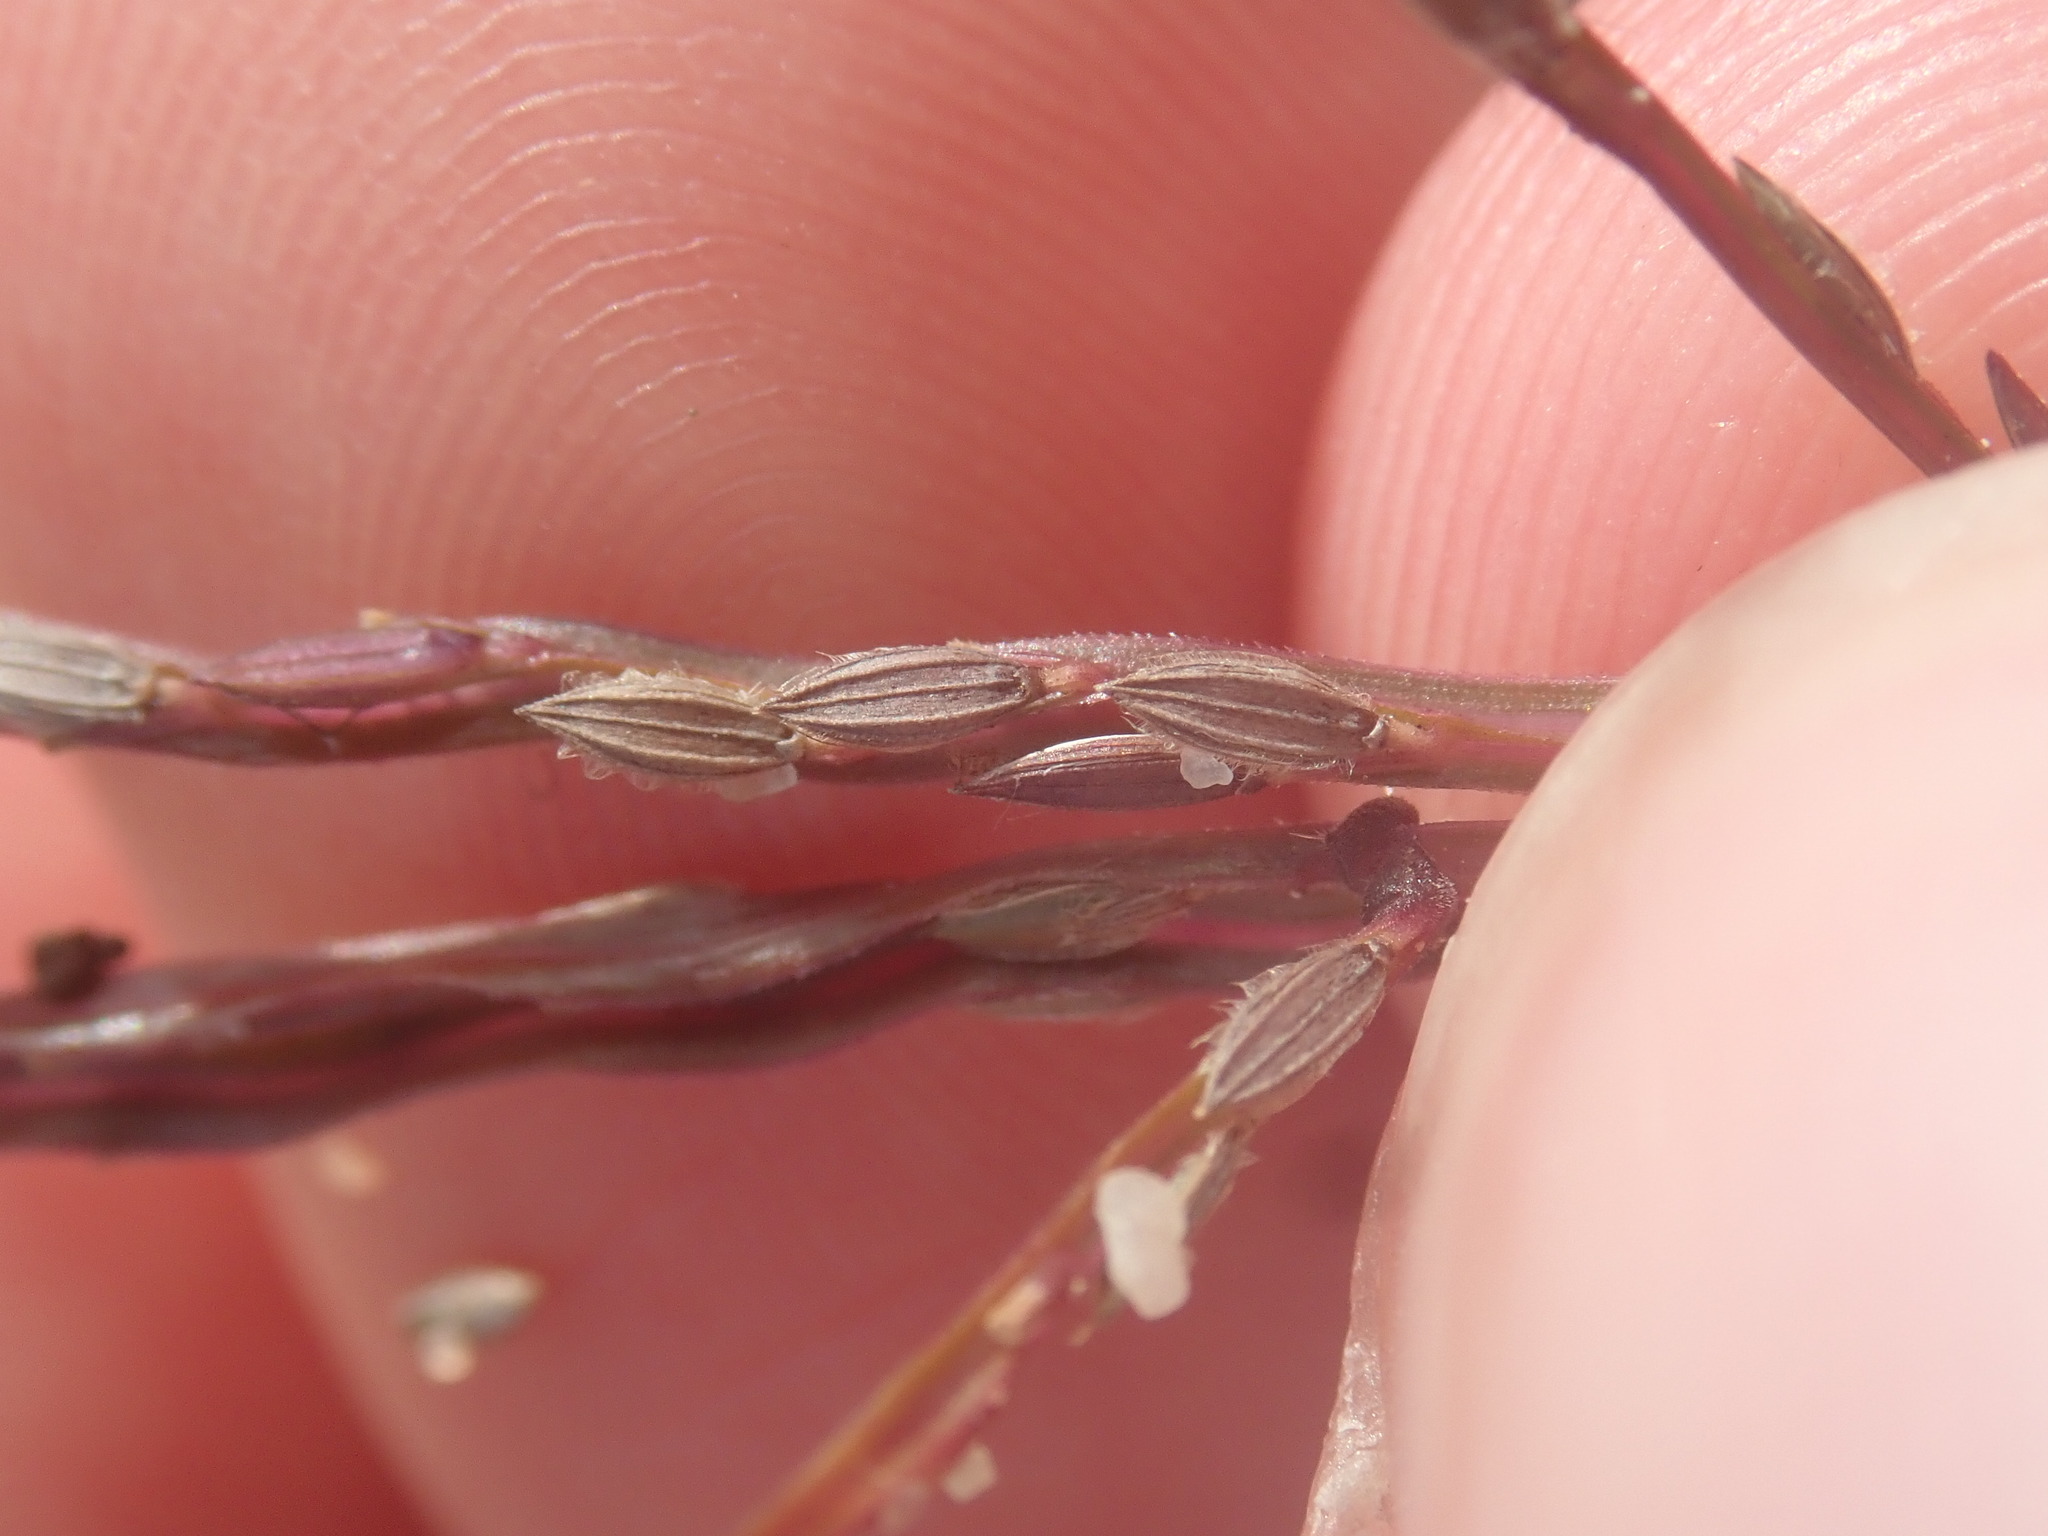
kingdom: Plantae
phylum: Tracheophyta
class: Liliopsida
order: Poales
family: Poaceae
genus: Digitaria
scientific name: Digitaria sanguinalis
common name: Hairy crabgrass
